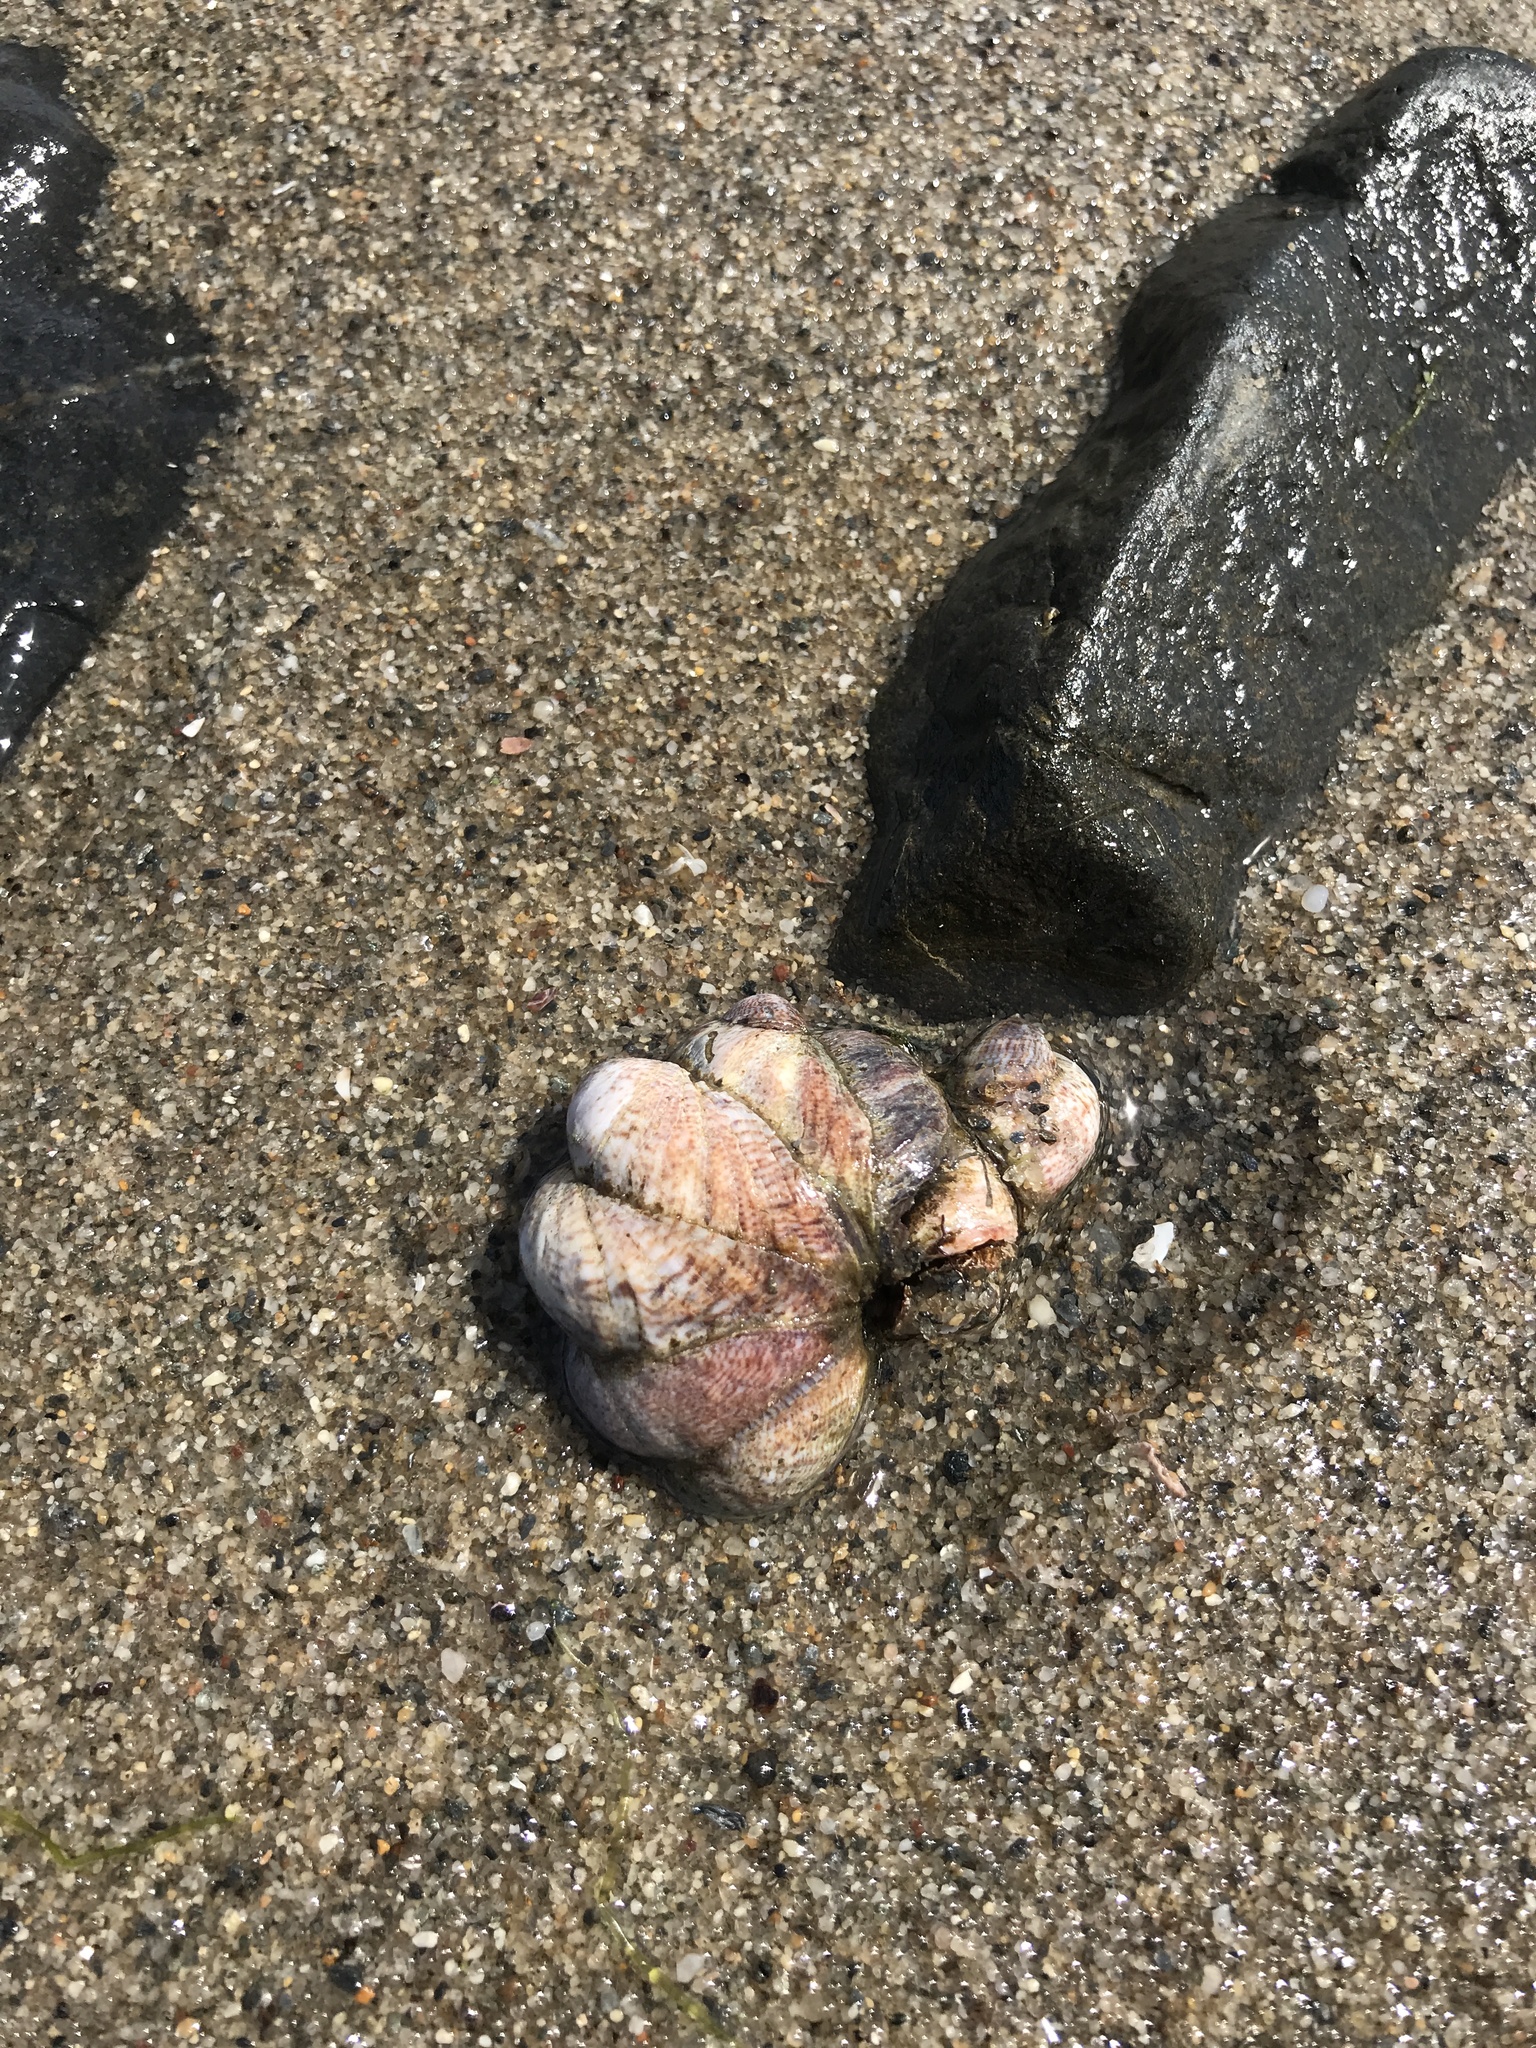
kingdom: Animalia
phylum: Mollusca
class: Gastropoda
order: Littorinimorpha
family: Calyptraeidae
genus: Crepidula
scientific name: Crepidula fornicata
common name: Slipper limpet
